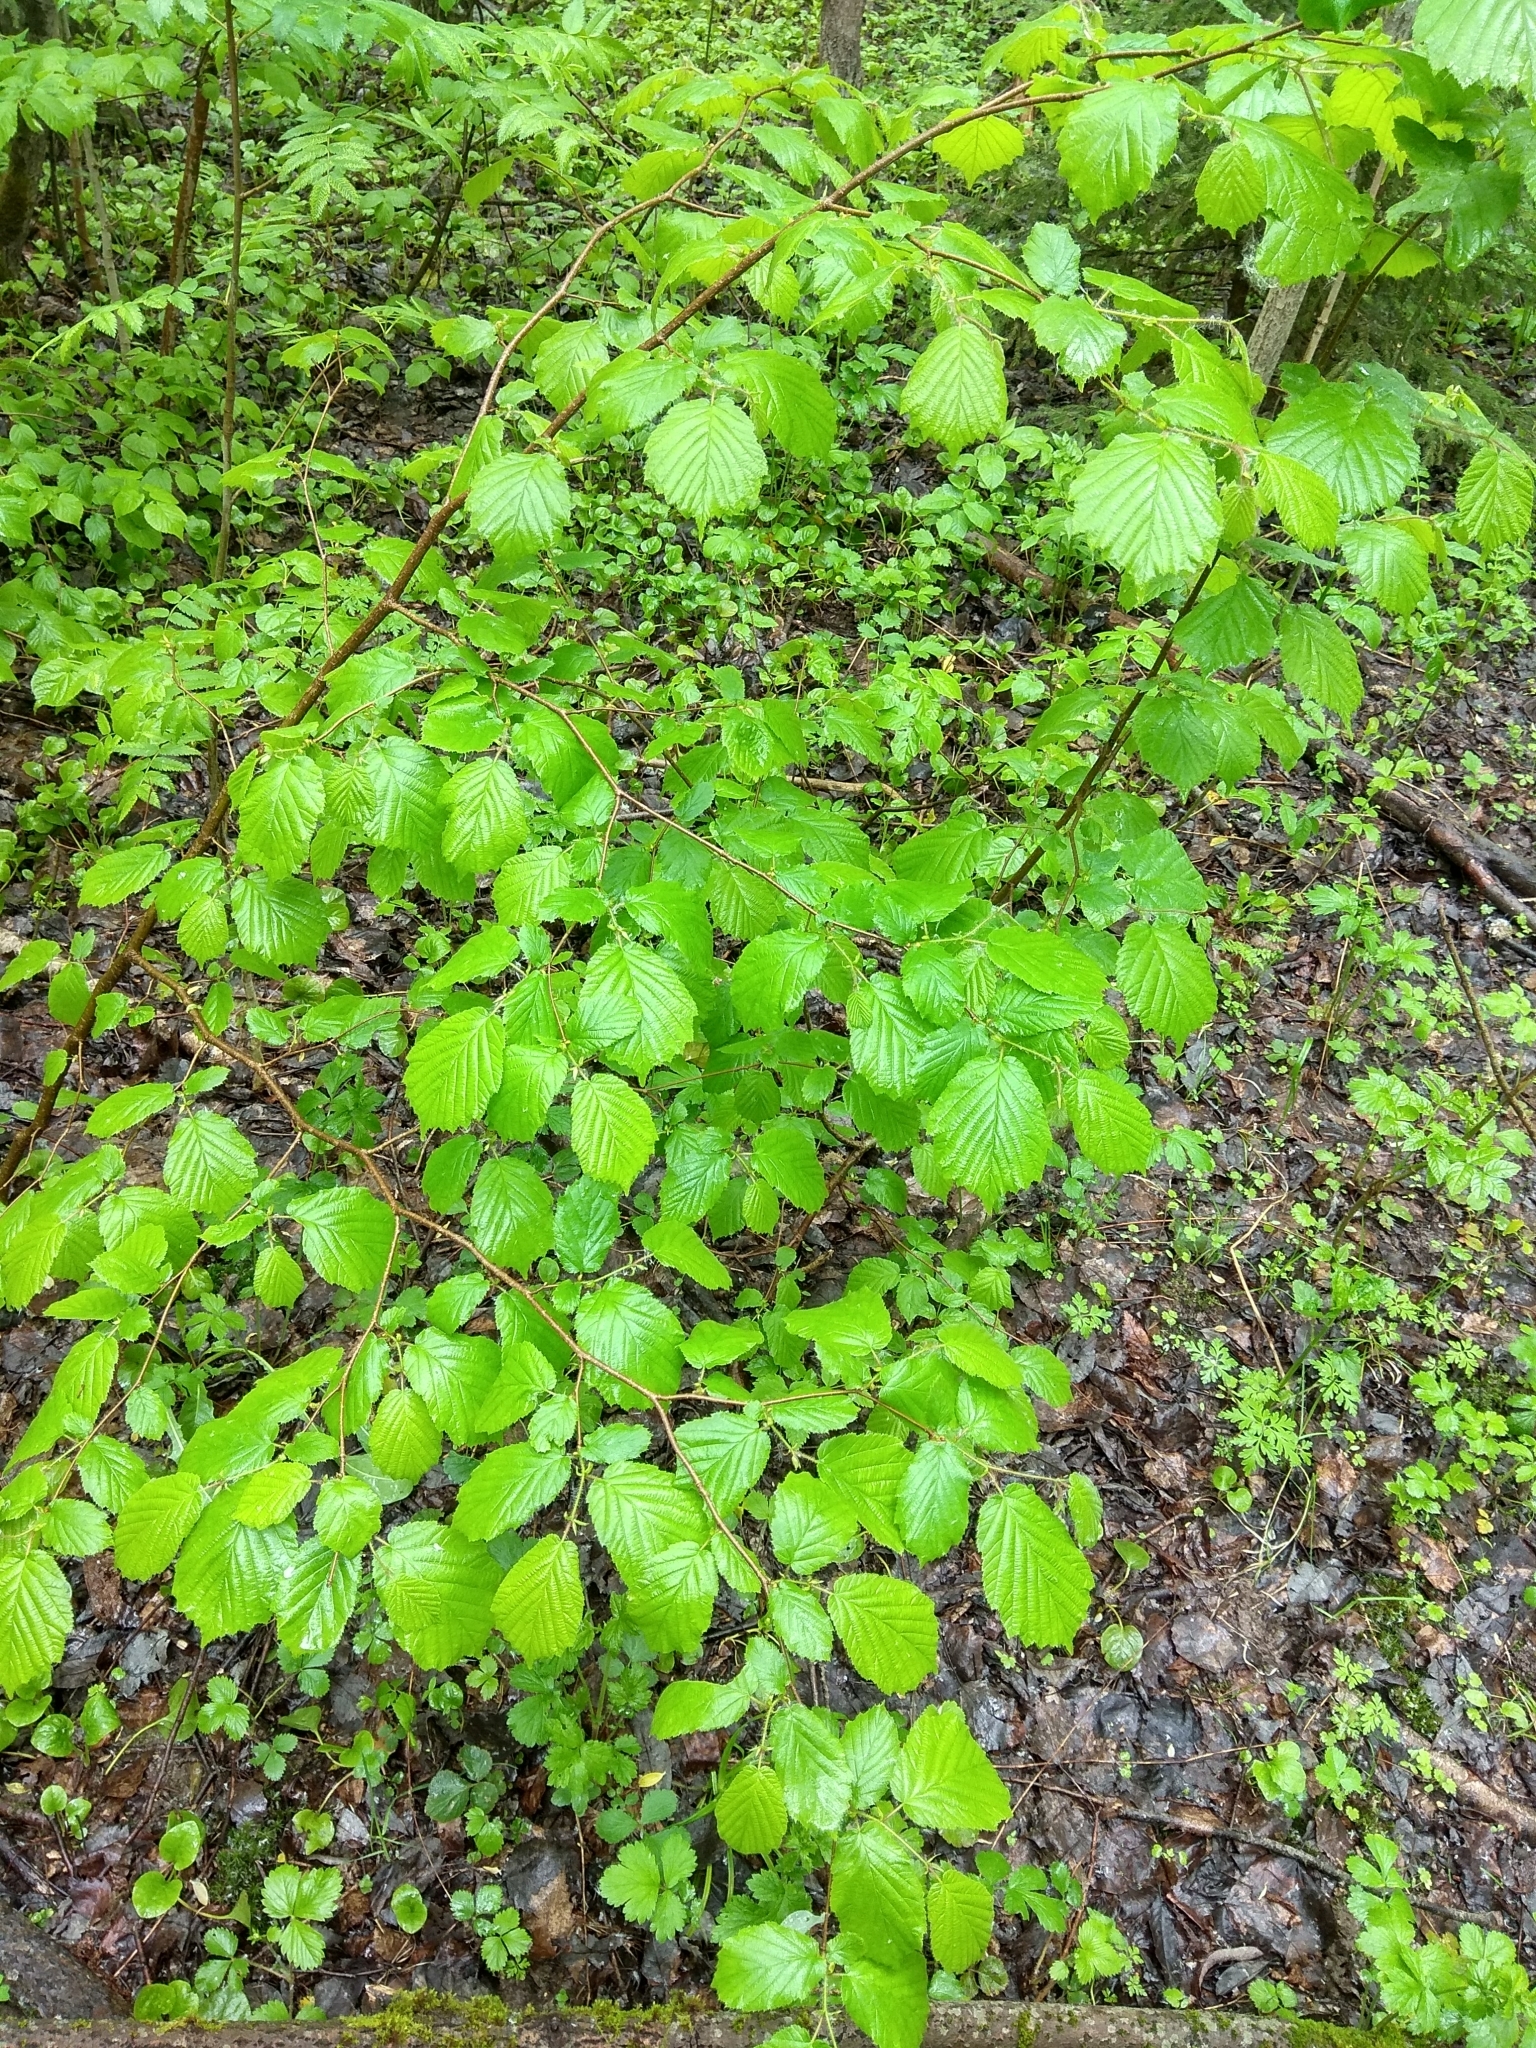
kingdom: Plantae
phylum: Tracheophyta
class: Magnoliopsida
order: Fagales
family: Betulaceae
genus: Corylus
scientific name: Corylus avellana
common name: European hazel
